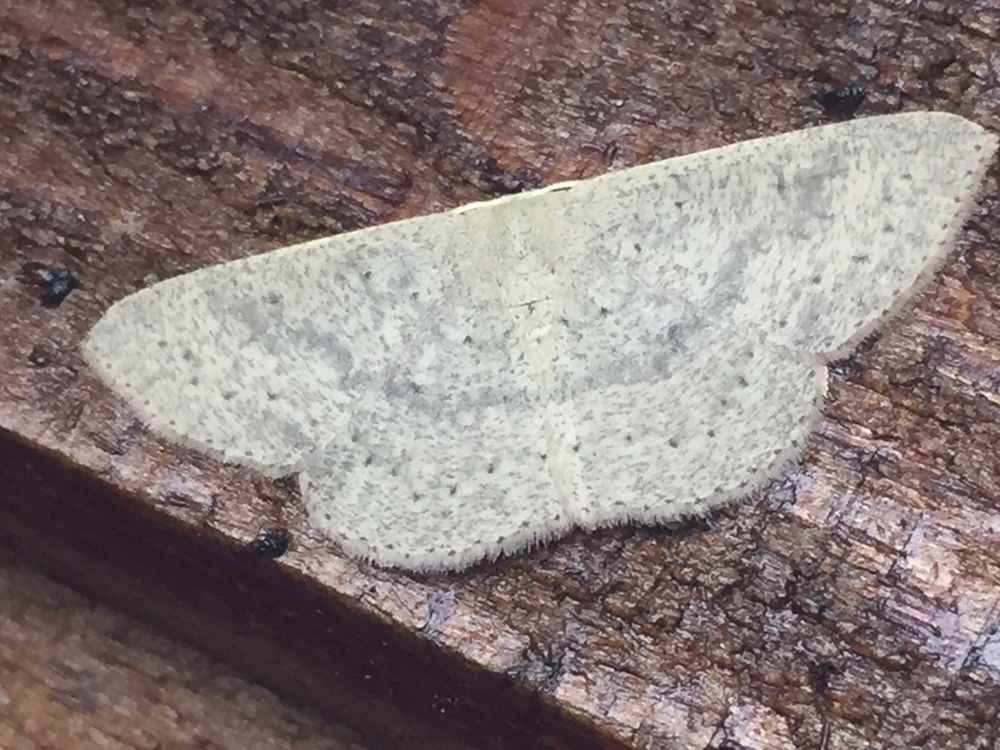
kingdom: Animalia
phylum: Arthropoda
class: Insecta
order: Lepidoptera
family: Geometridae
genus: Cyclophora
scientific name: Cyclophora obstataria
